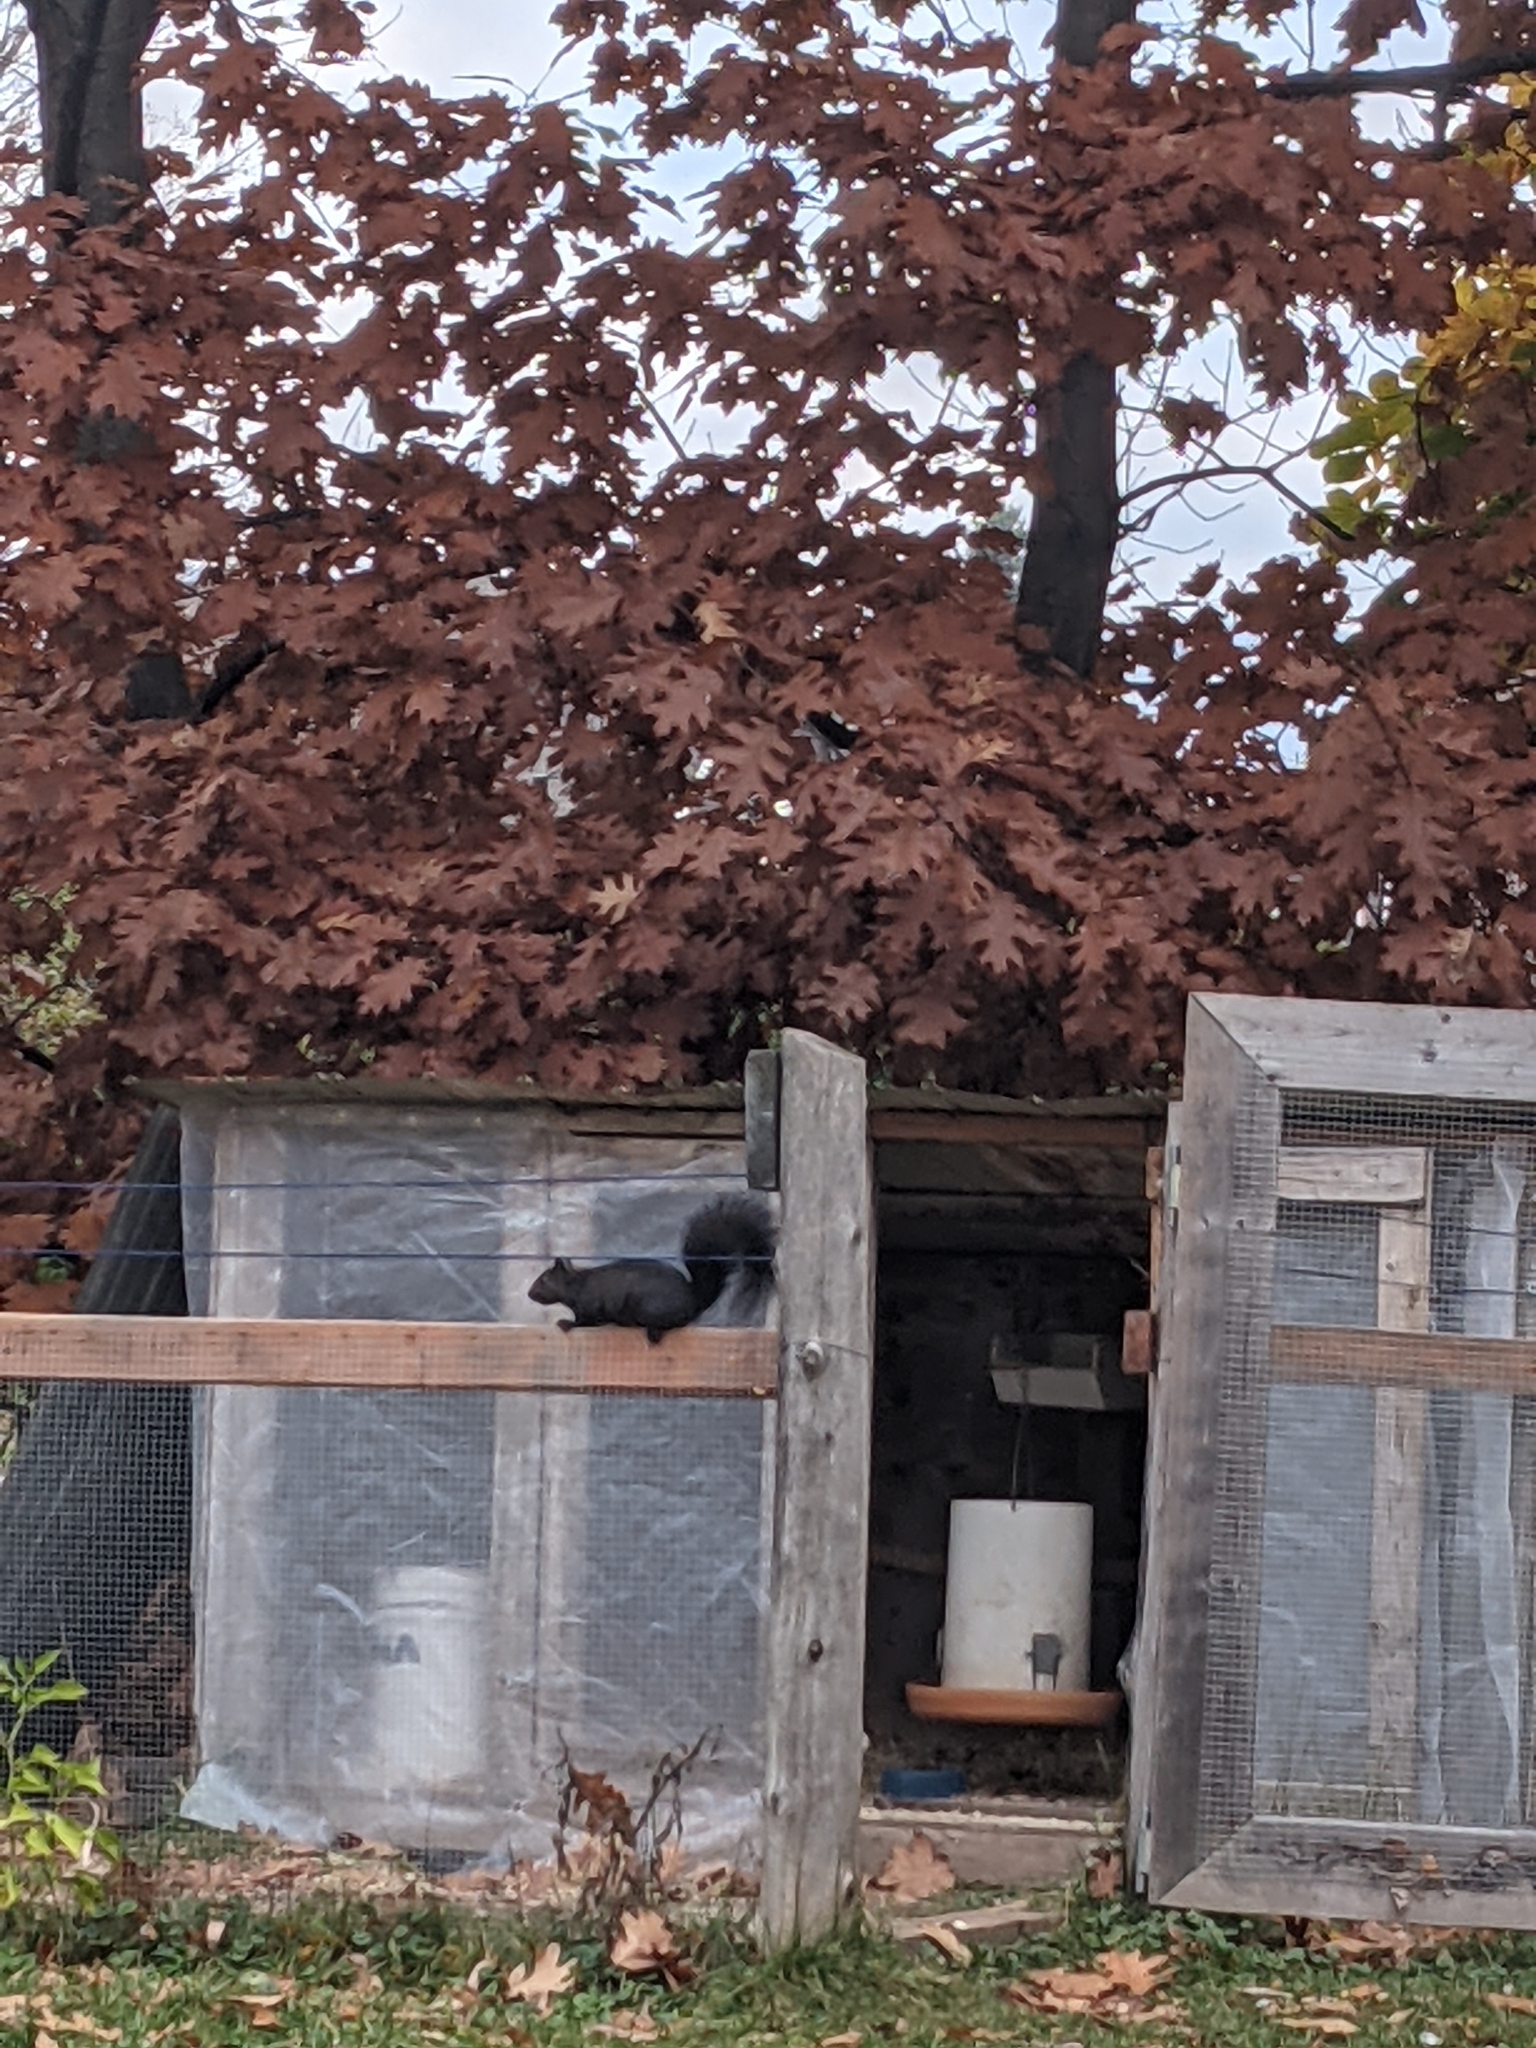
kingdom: Animalia
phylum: Chordata
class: Mammalia
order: Rodentia
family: Sciuridae
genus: Sciurus
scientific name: Sciurus carolinensis
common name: Eastern gray squirrel
